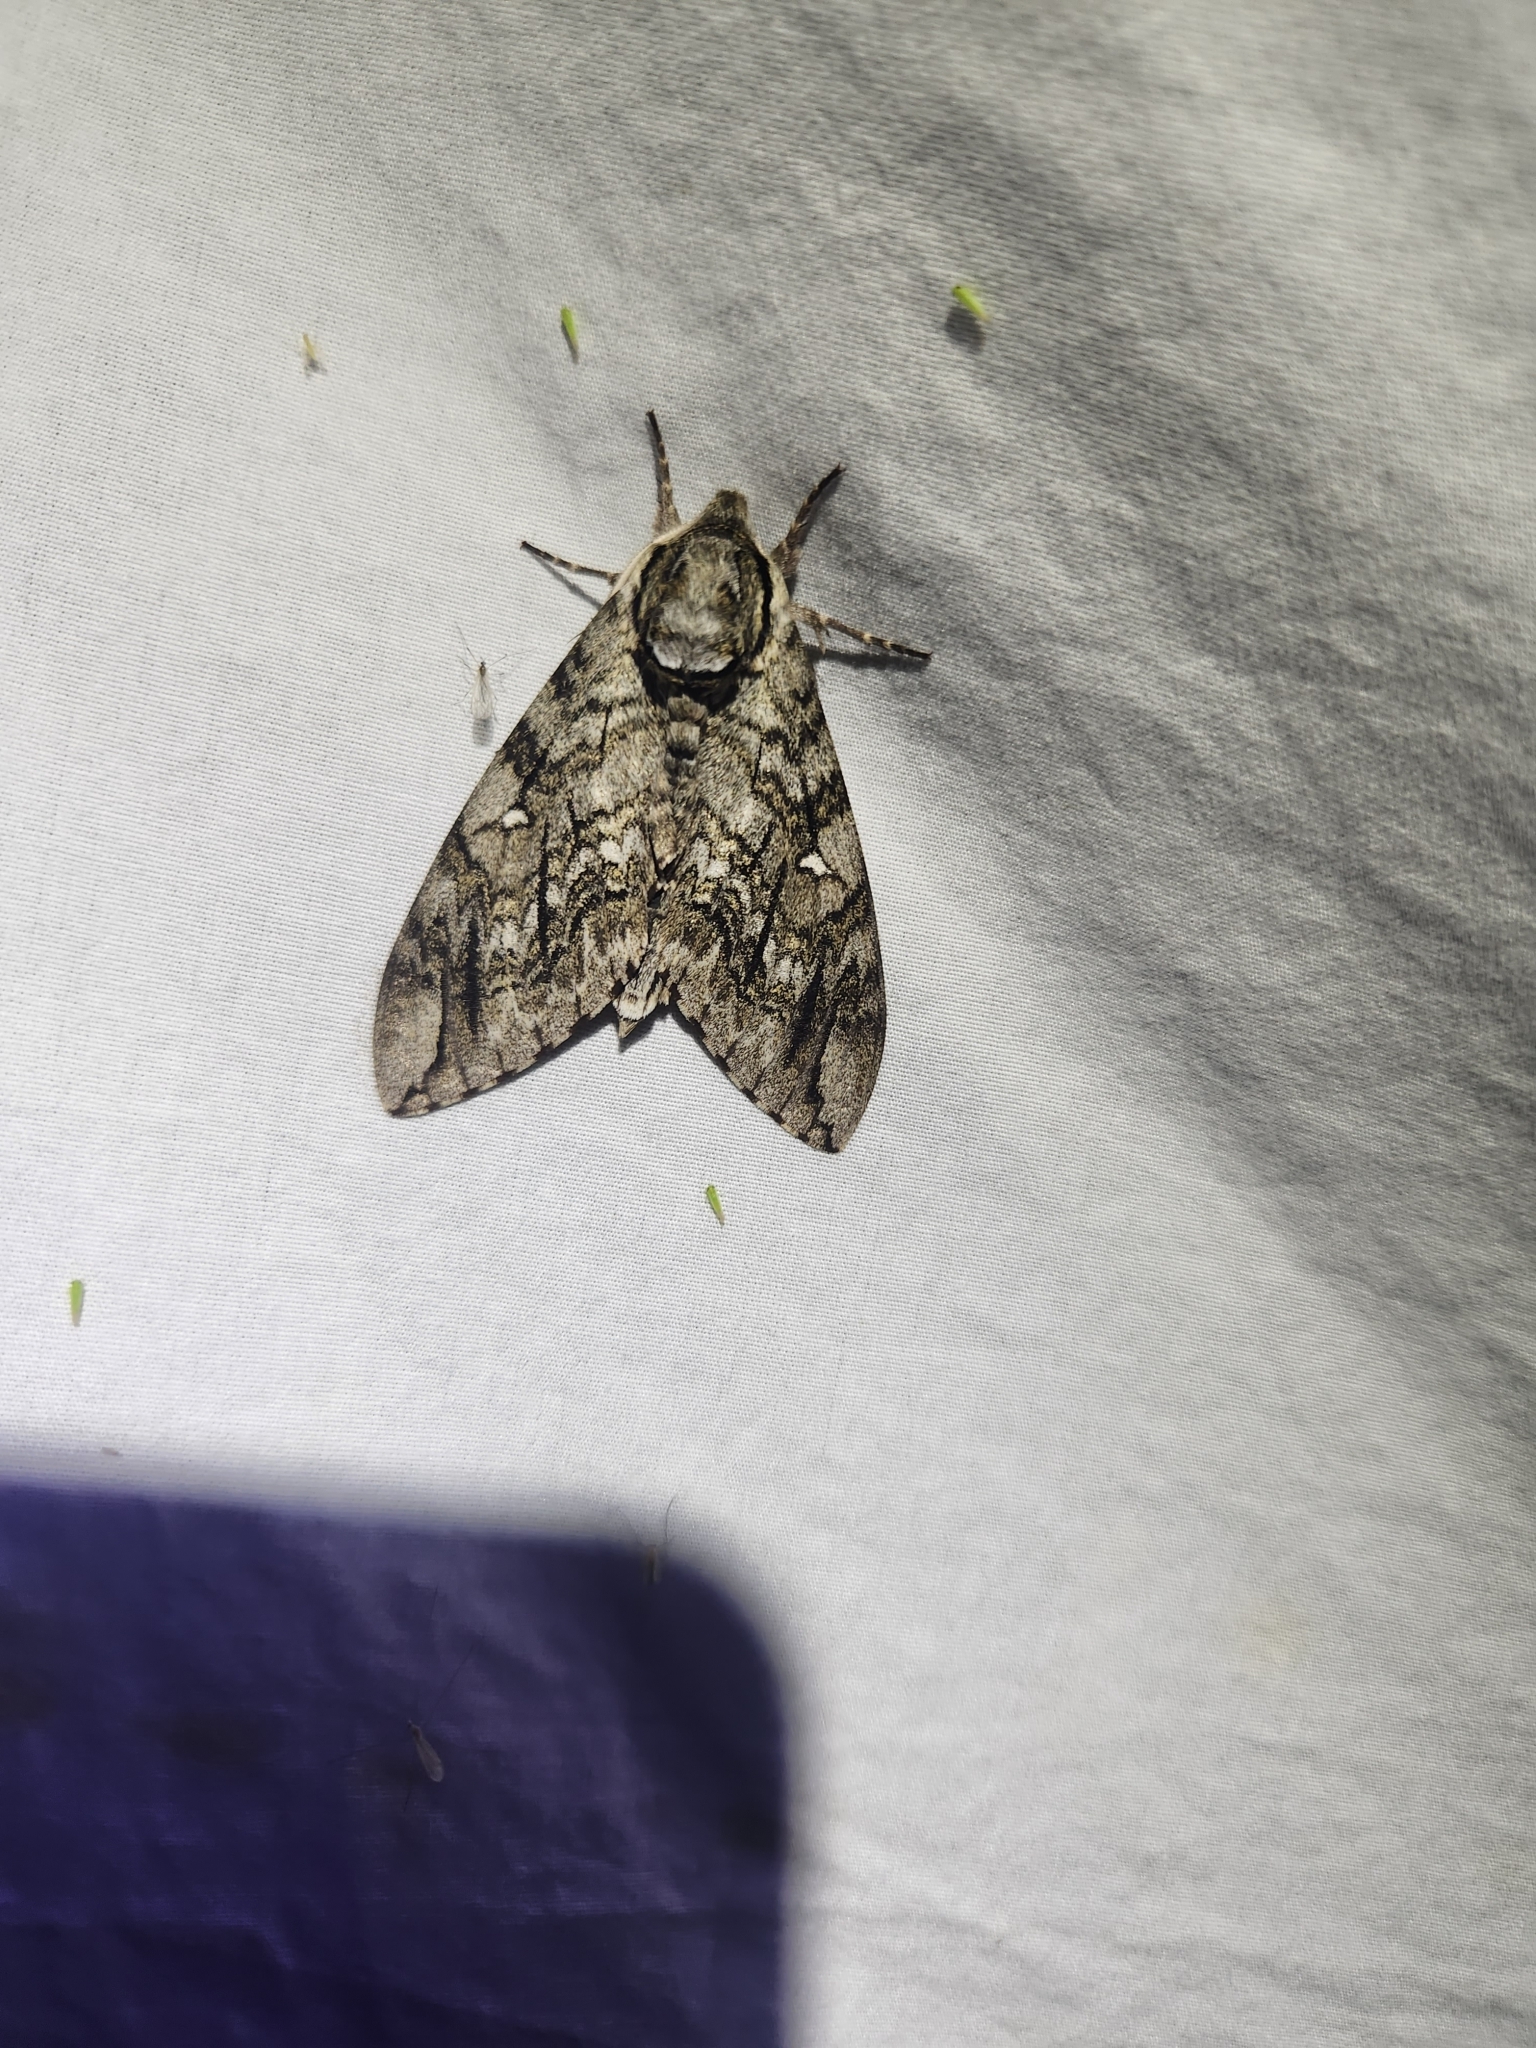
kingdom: Animalia
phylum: Arthropoda
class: Insecta
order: Lepidoptera
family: Sphingidae
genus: Ceratomia
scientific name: Ceratomia undulosa
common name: Waved sphinx
